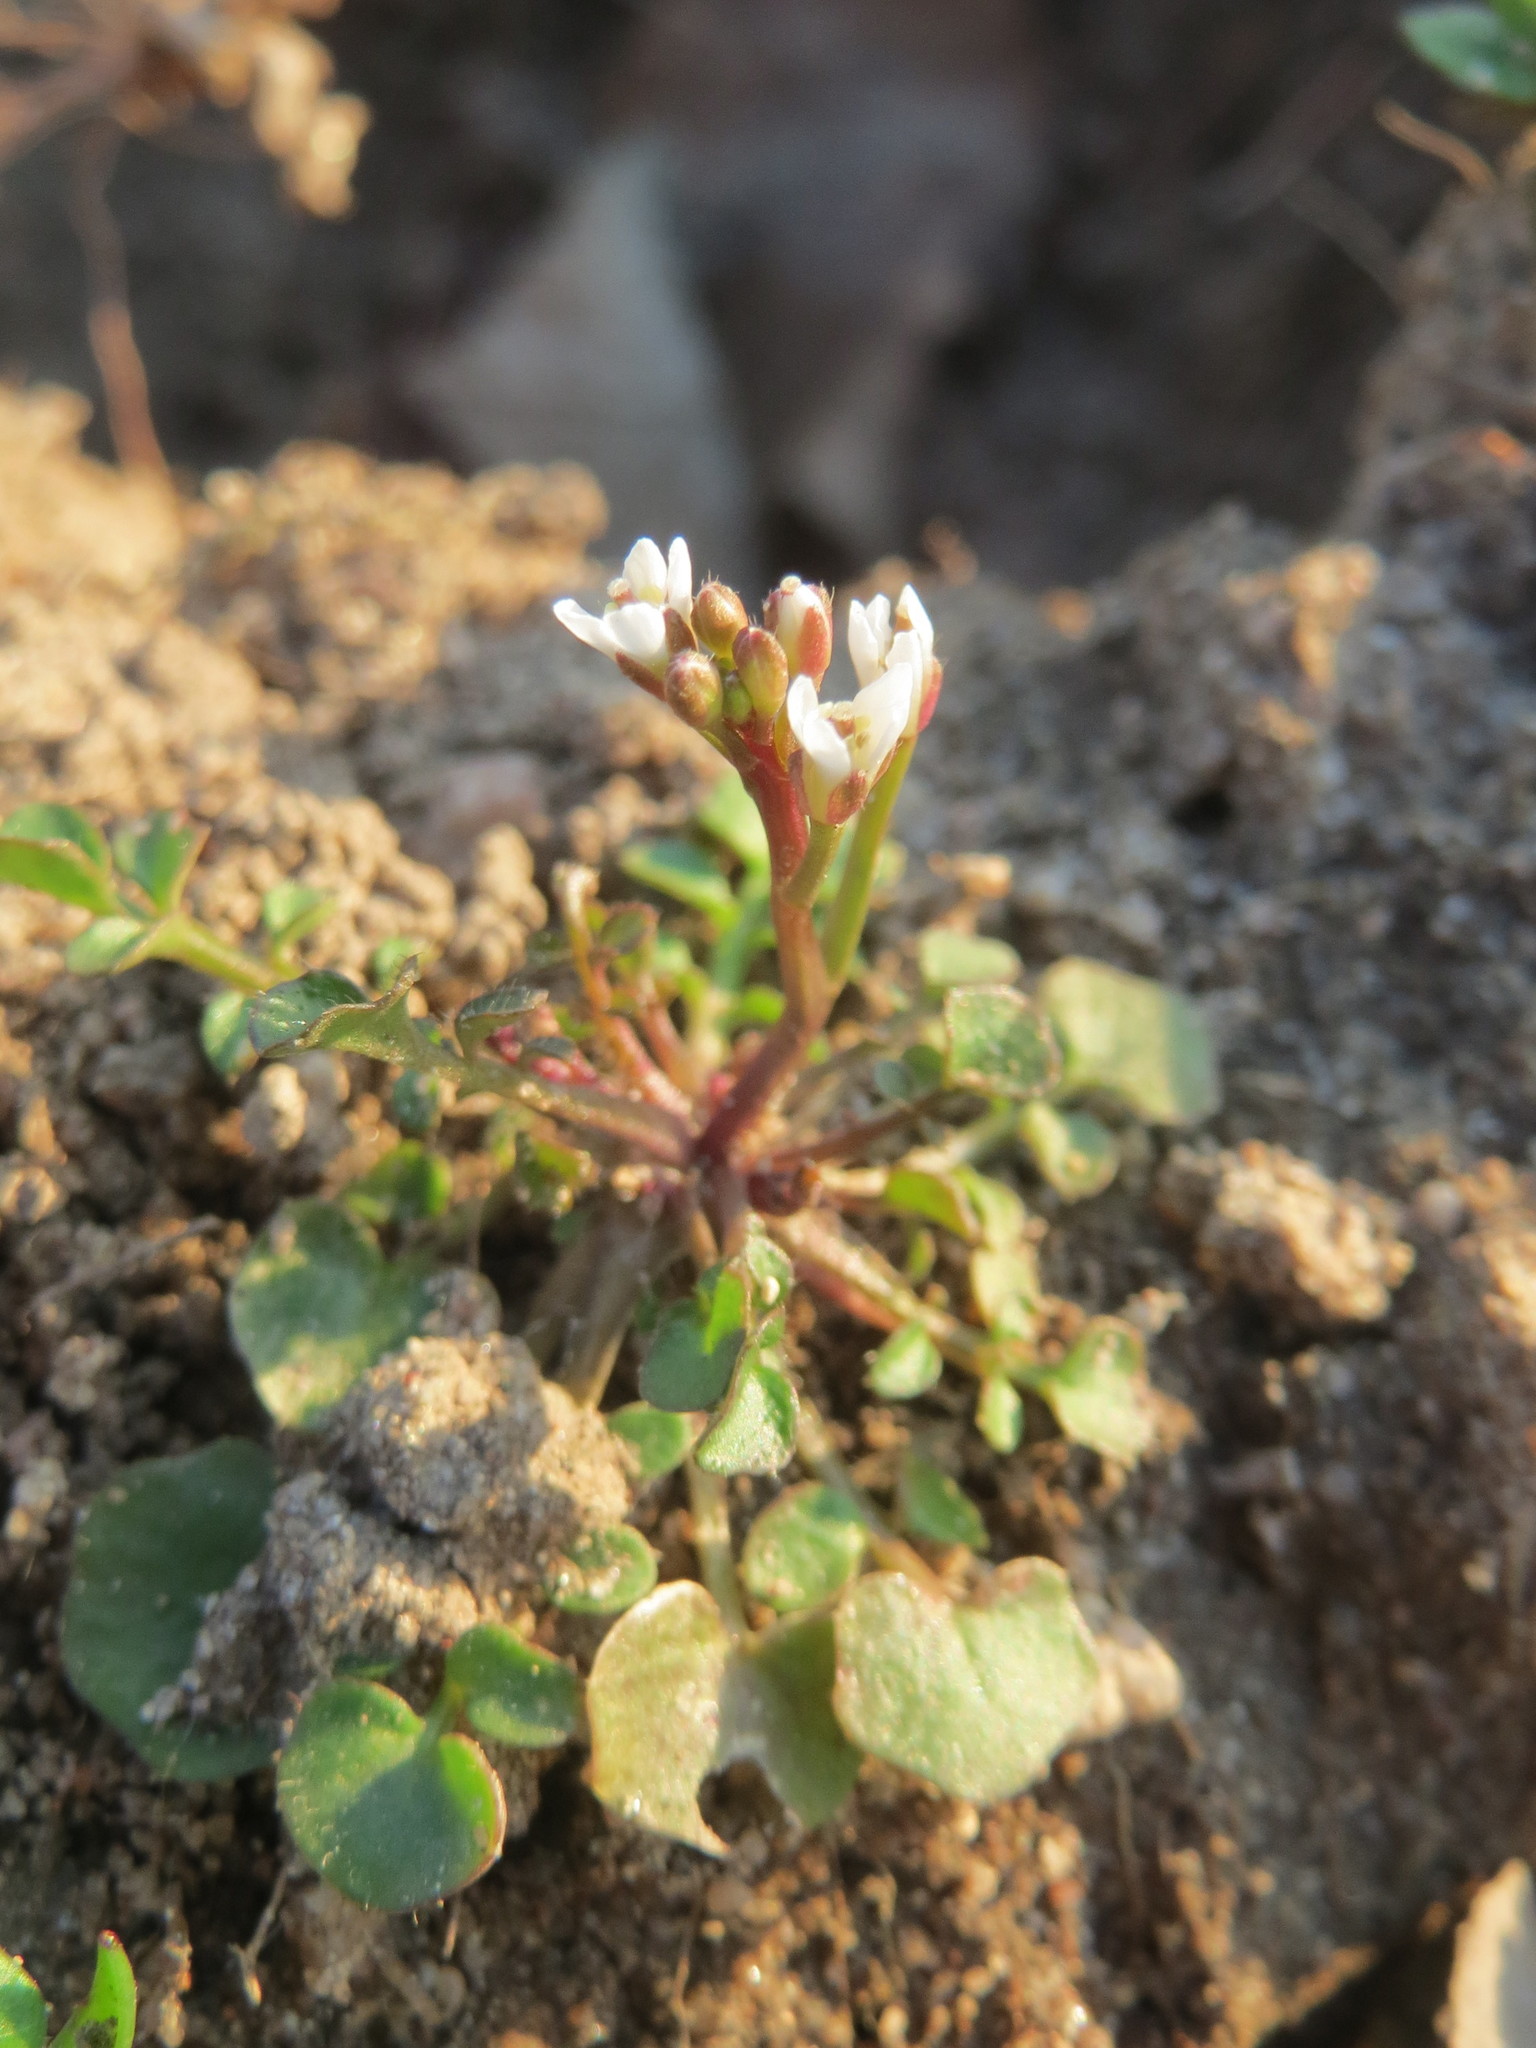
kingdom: Plantae
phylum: Tracheophyta
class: Magnoliopsida
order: Brassicales
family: Brassicaceae
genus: Cardamine
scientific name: Cardamine hirsuta
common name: Hairy bittercress
